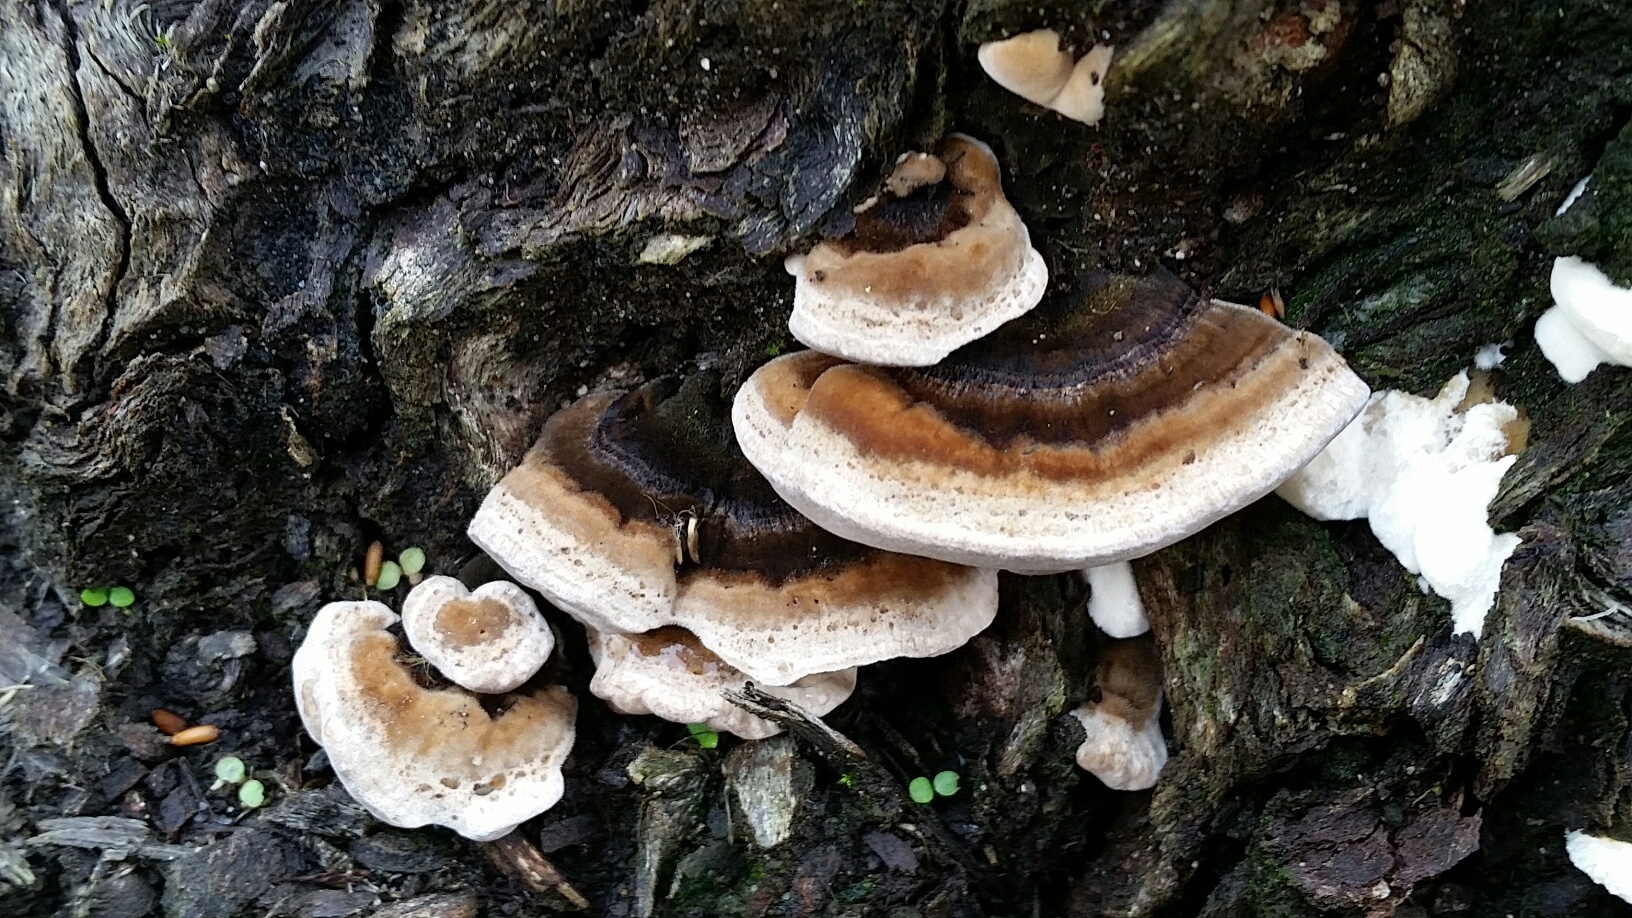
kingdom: Fungi
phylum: Basidiomycota
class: Agaricomycetes
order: Polyporales
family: Polyporaceae
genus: Trametes
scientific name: Trametes versicolor
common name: Turkeytail
